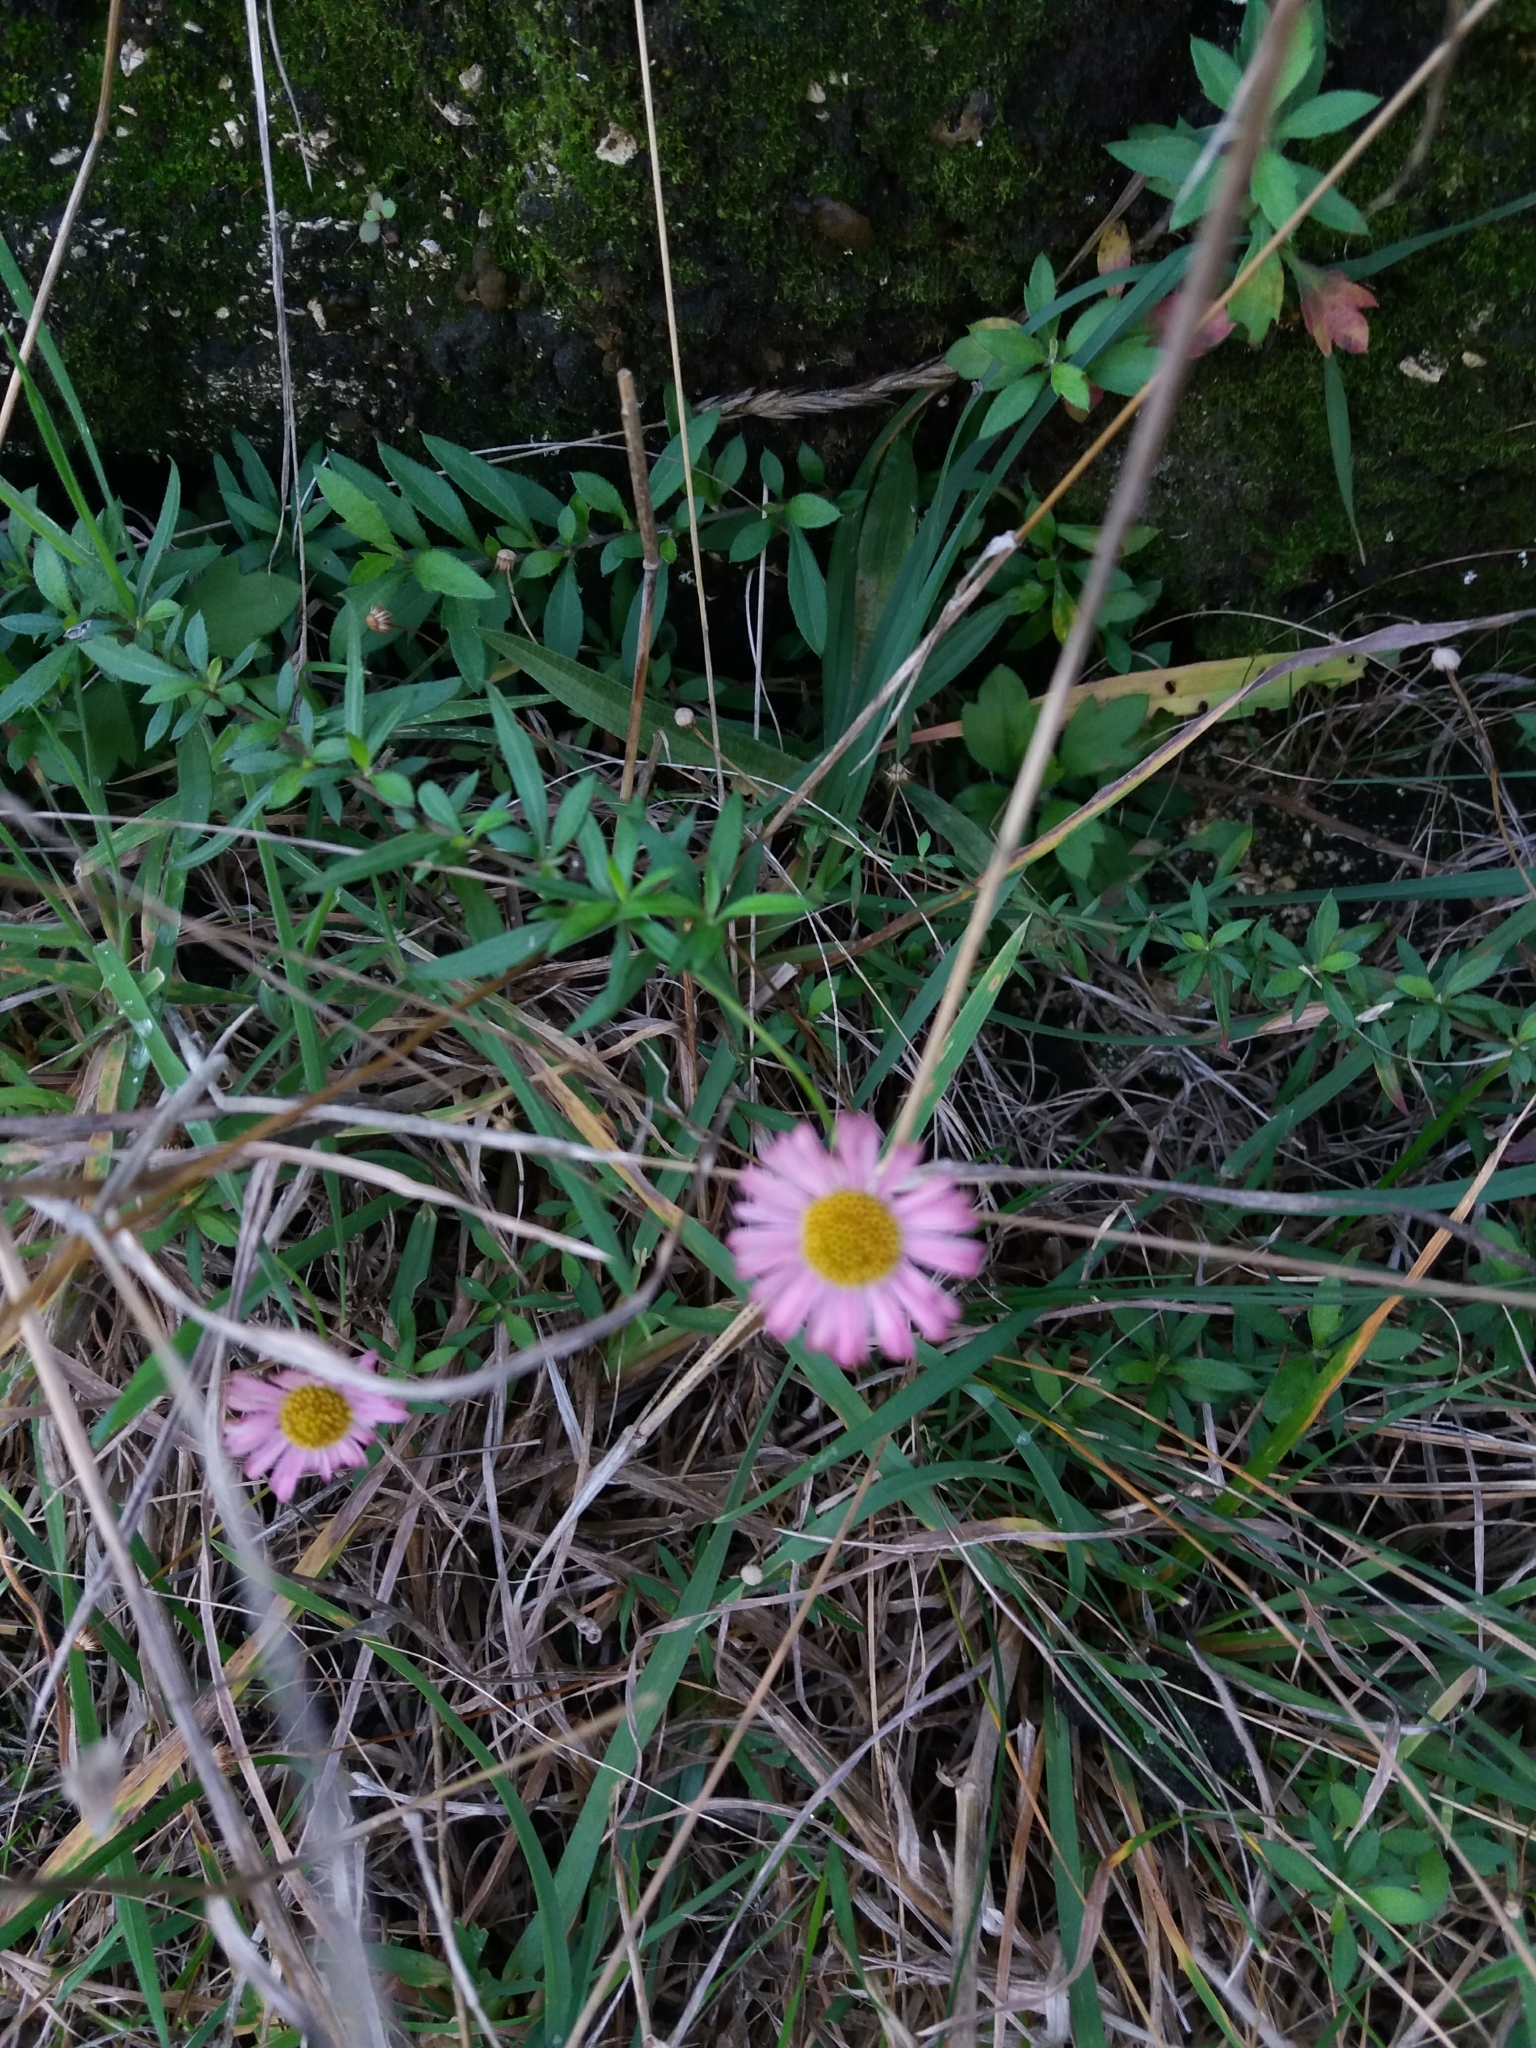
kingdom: Plantae
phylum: Tracheophyta
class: Magnoliopsida
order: Asterales
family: Asteraceae
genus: Erigeron
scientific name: Erigeron karvinskianus
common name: Mexican fleabane
